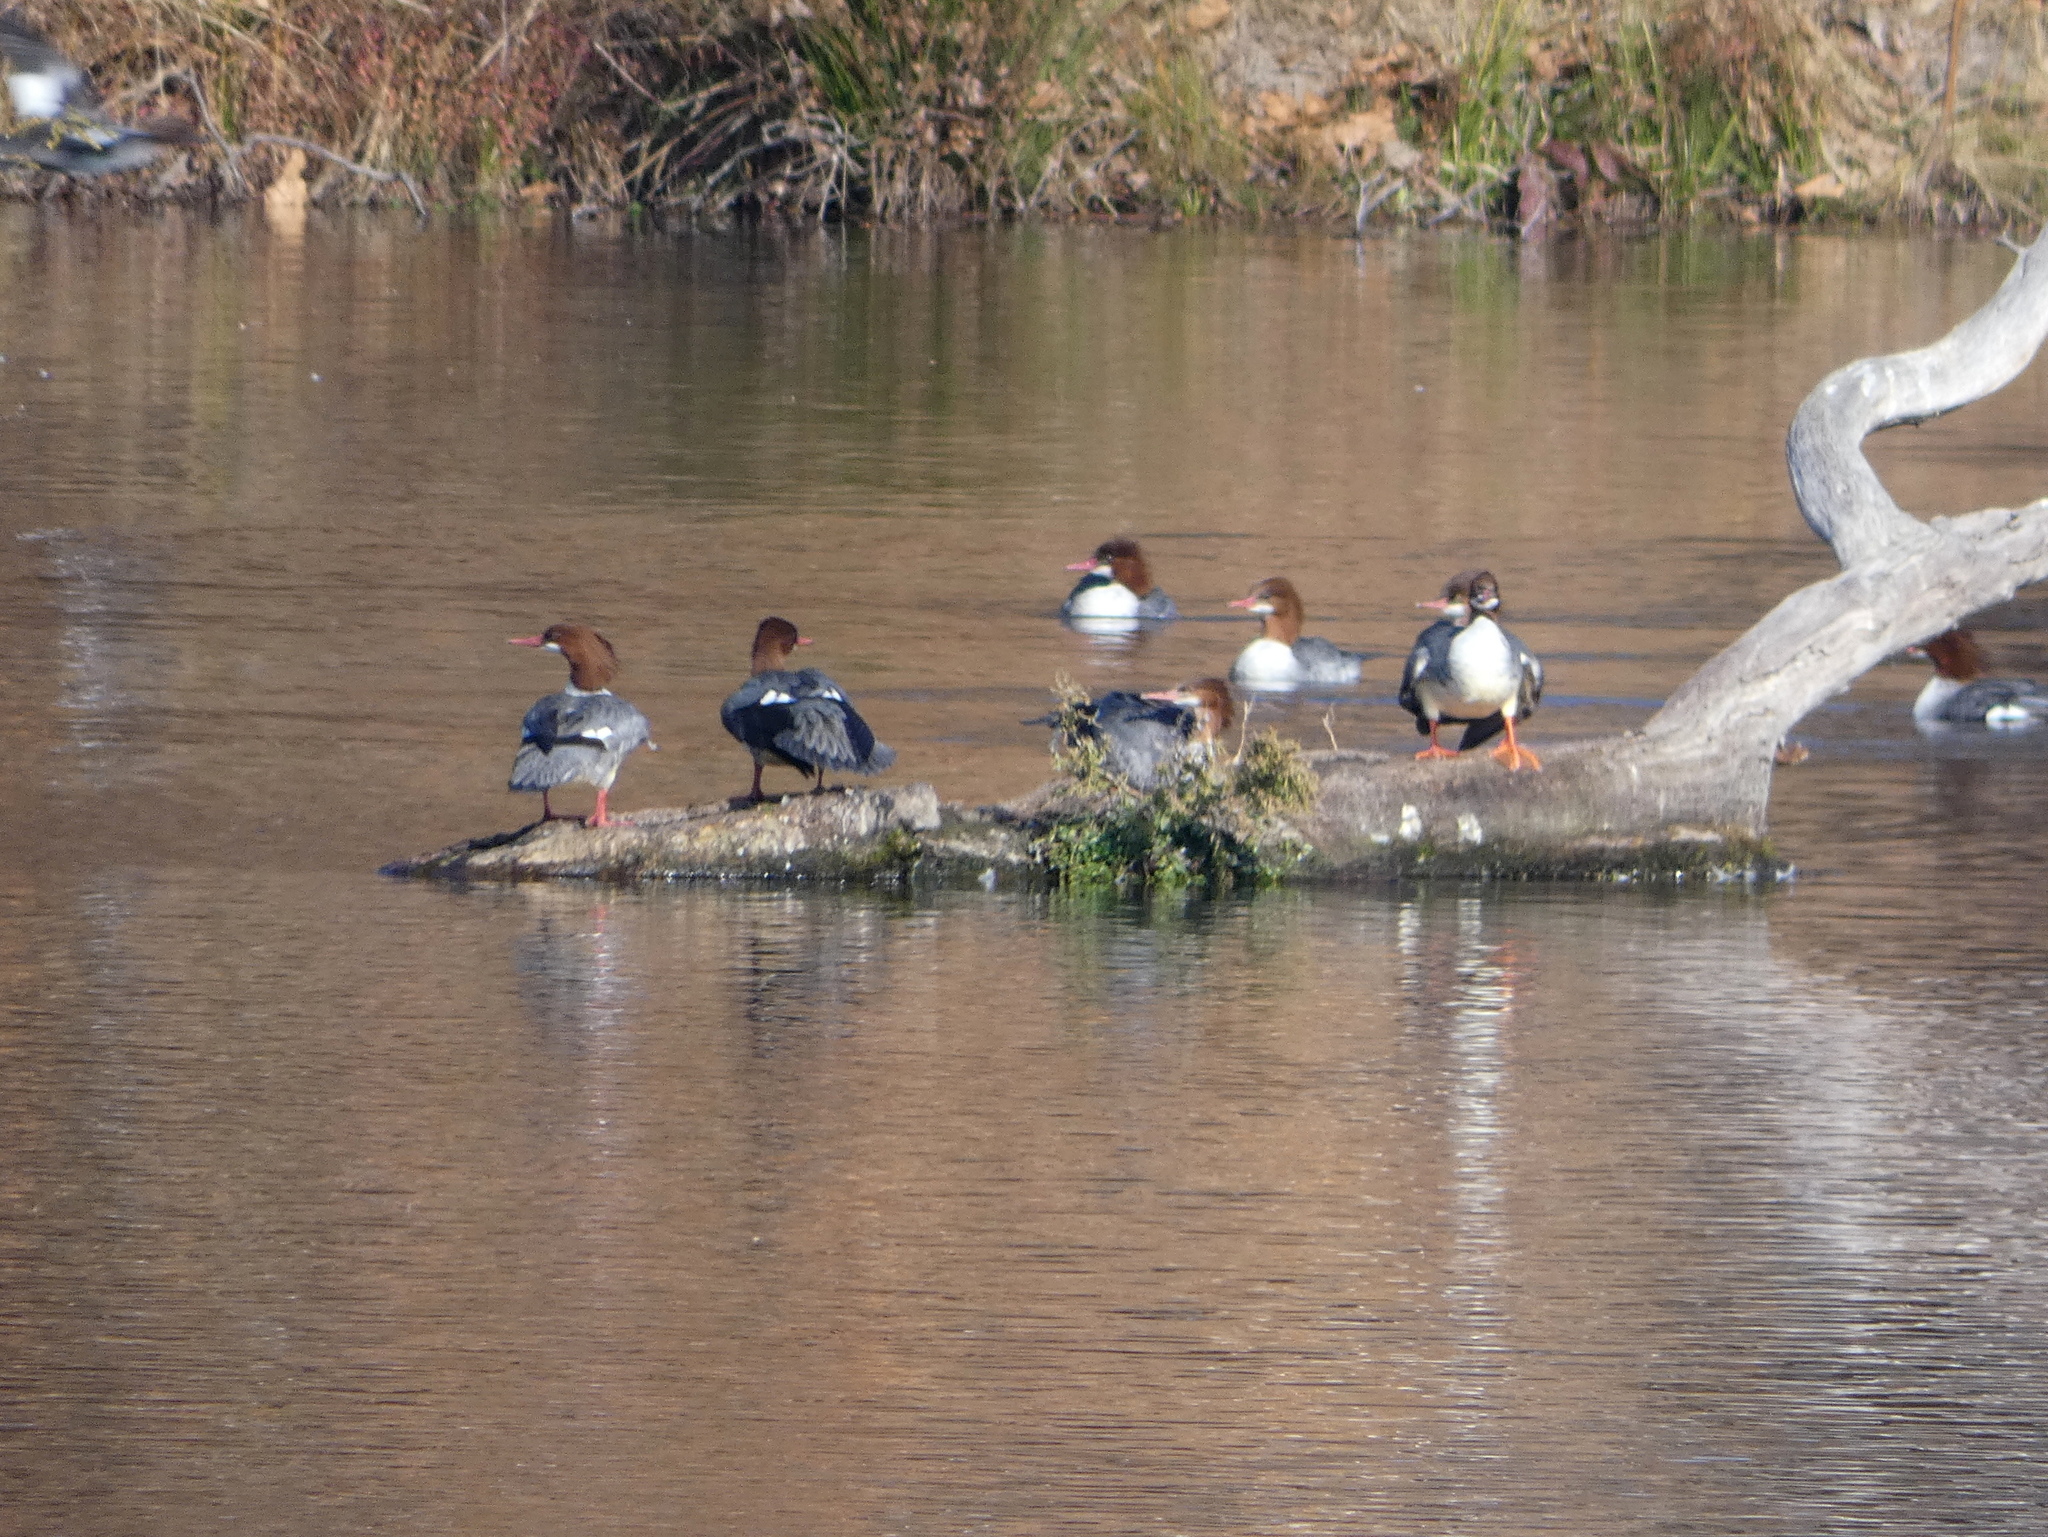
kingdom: Animalia
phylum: Chordata
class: Aves
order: Anseriformes
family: Anatidae
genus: Mergus
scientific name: Mergus merganser
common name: Common merganser
